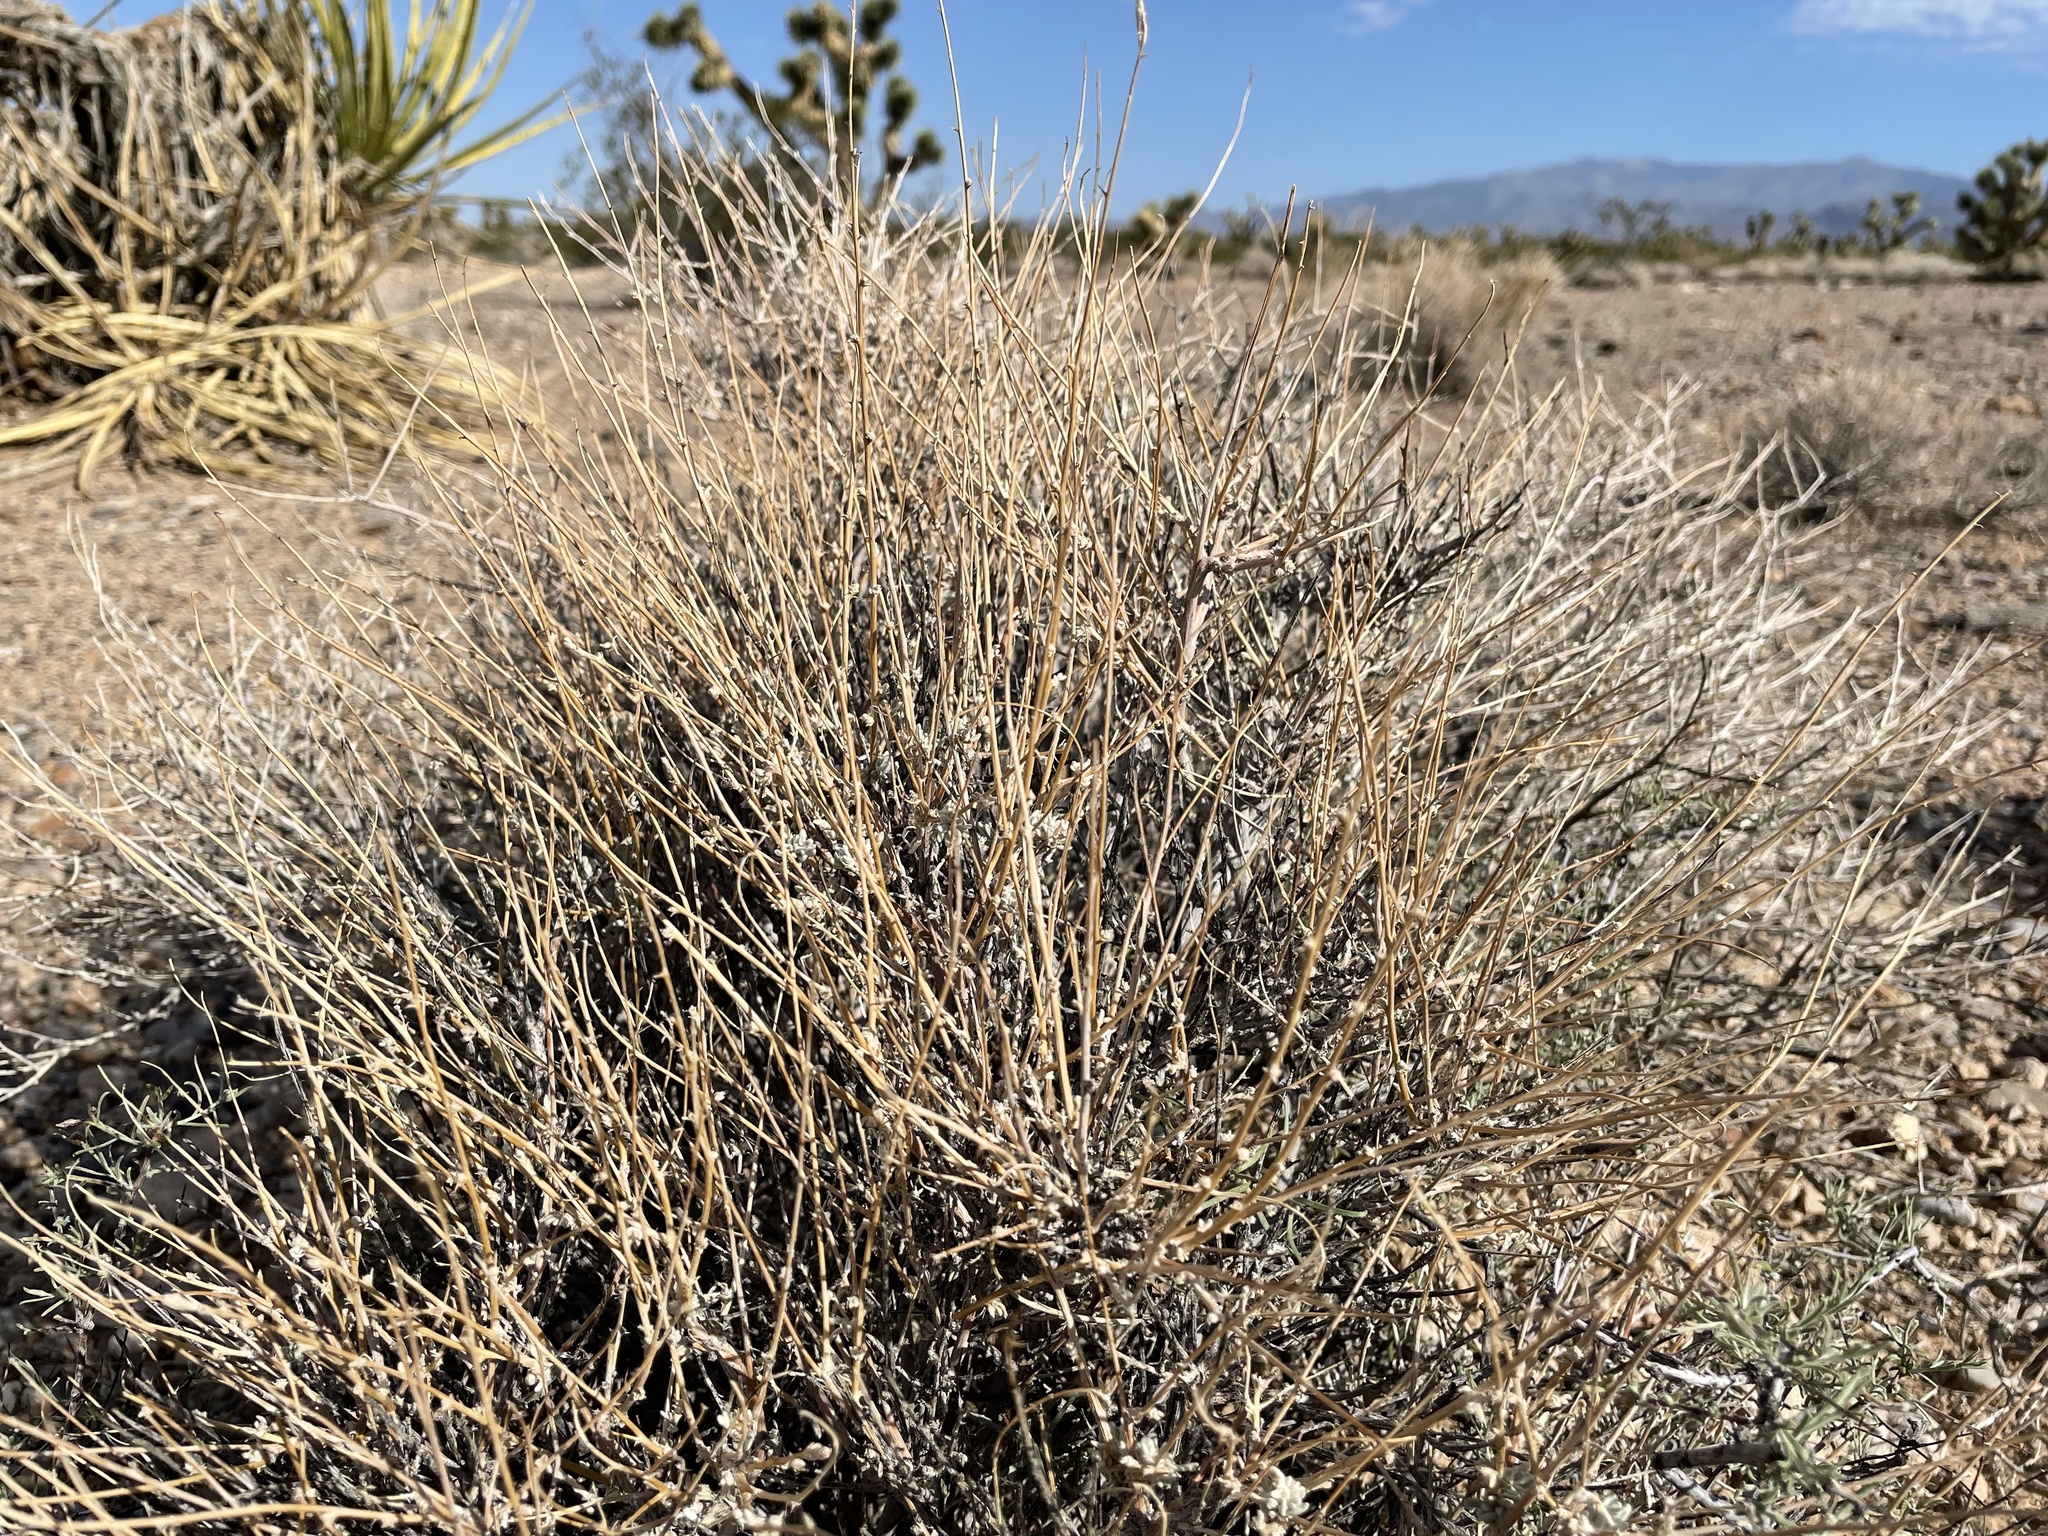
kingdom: Plantae
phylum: Tracheophyta
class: Magnoliopsida
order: Caryophyllales
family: Amaranthaceae
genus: Krascheninnikovia
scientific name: Krascheninnikovia lanata
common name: Winterfat
